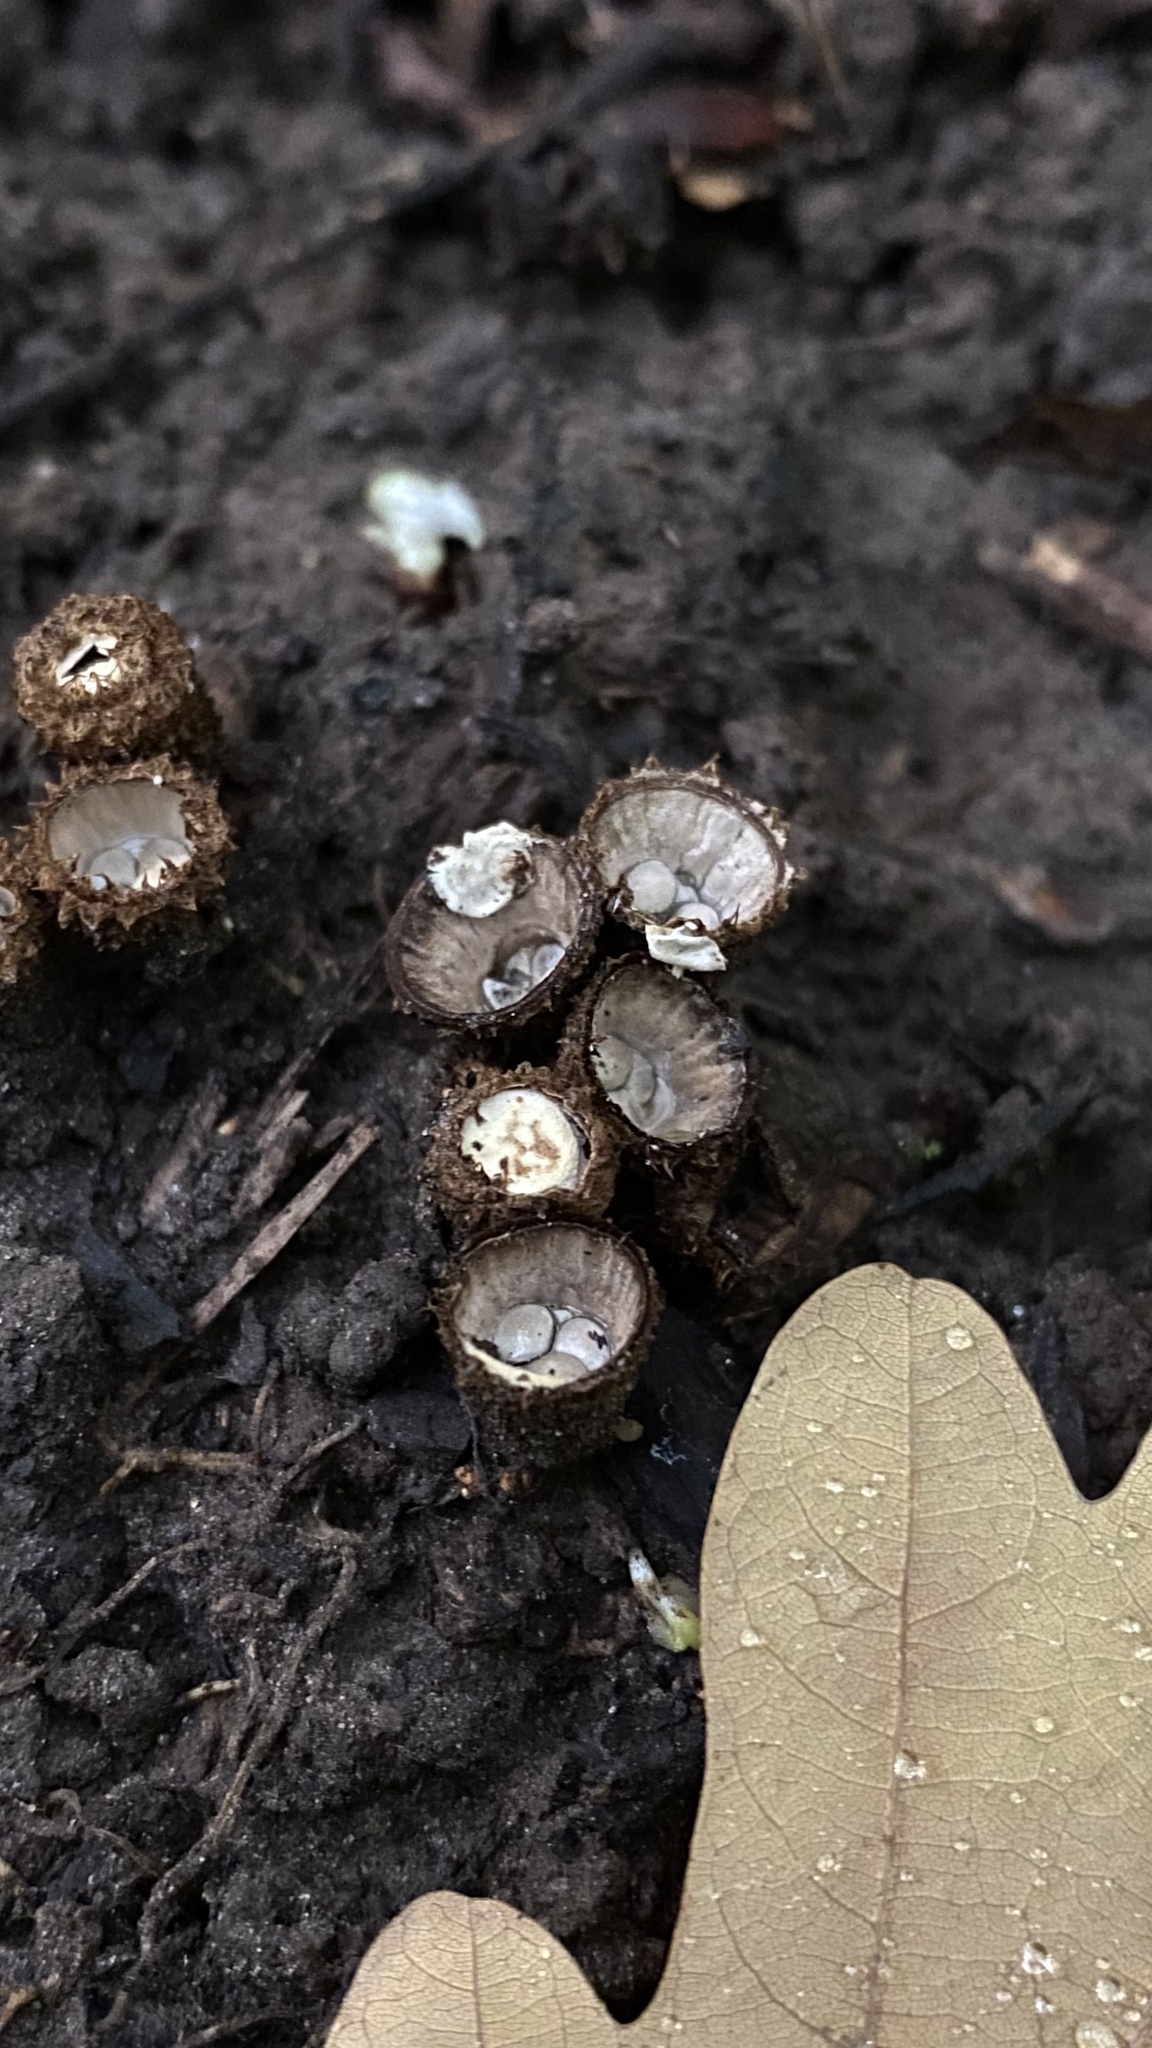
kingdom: Fungi
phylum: Basidiomycota
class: Agaricomycetes
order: Agaricales
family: Agaricaceae
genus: Cyathus
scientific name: Cyathus striatus
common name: Fluted bird's nest
